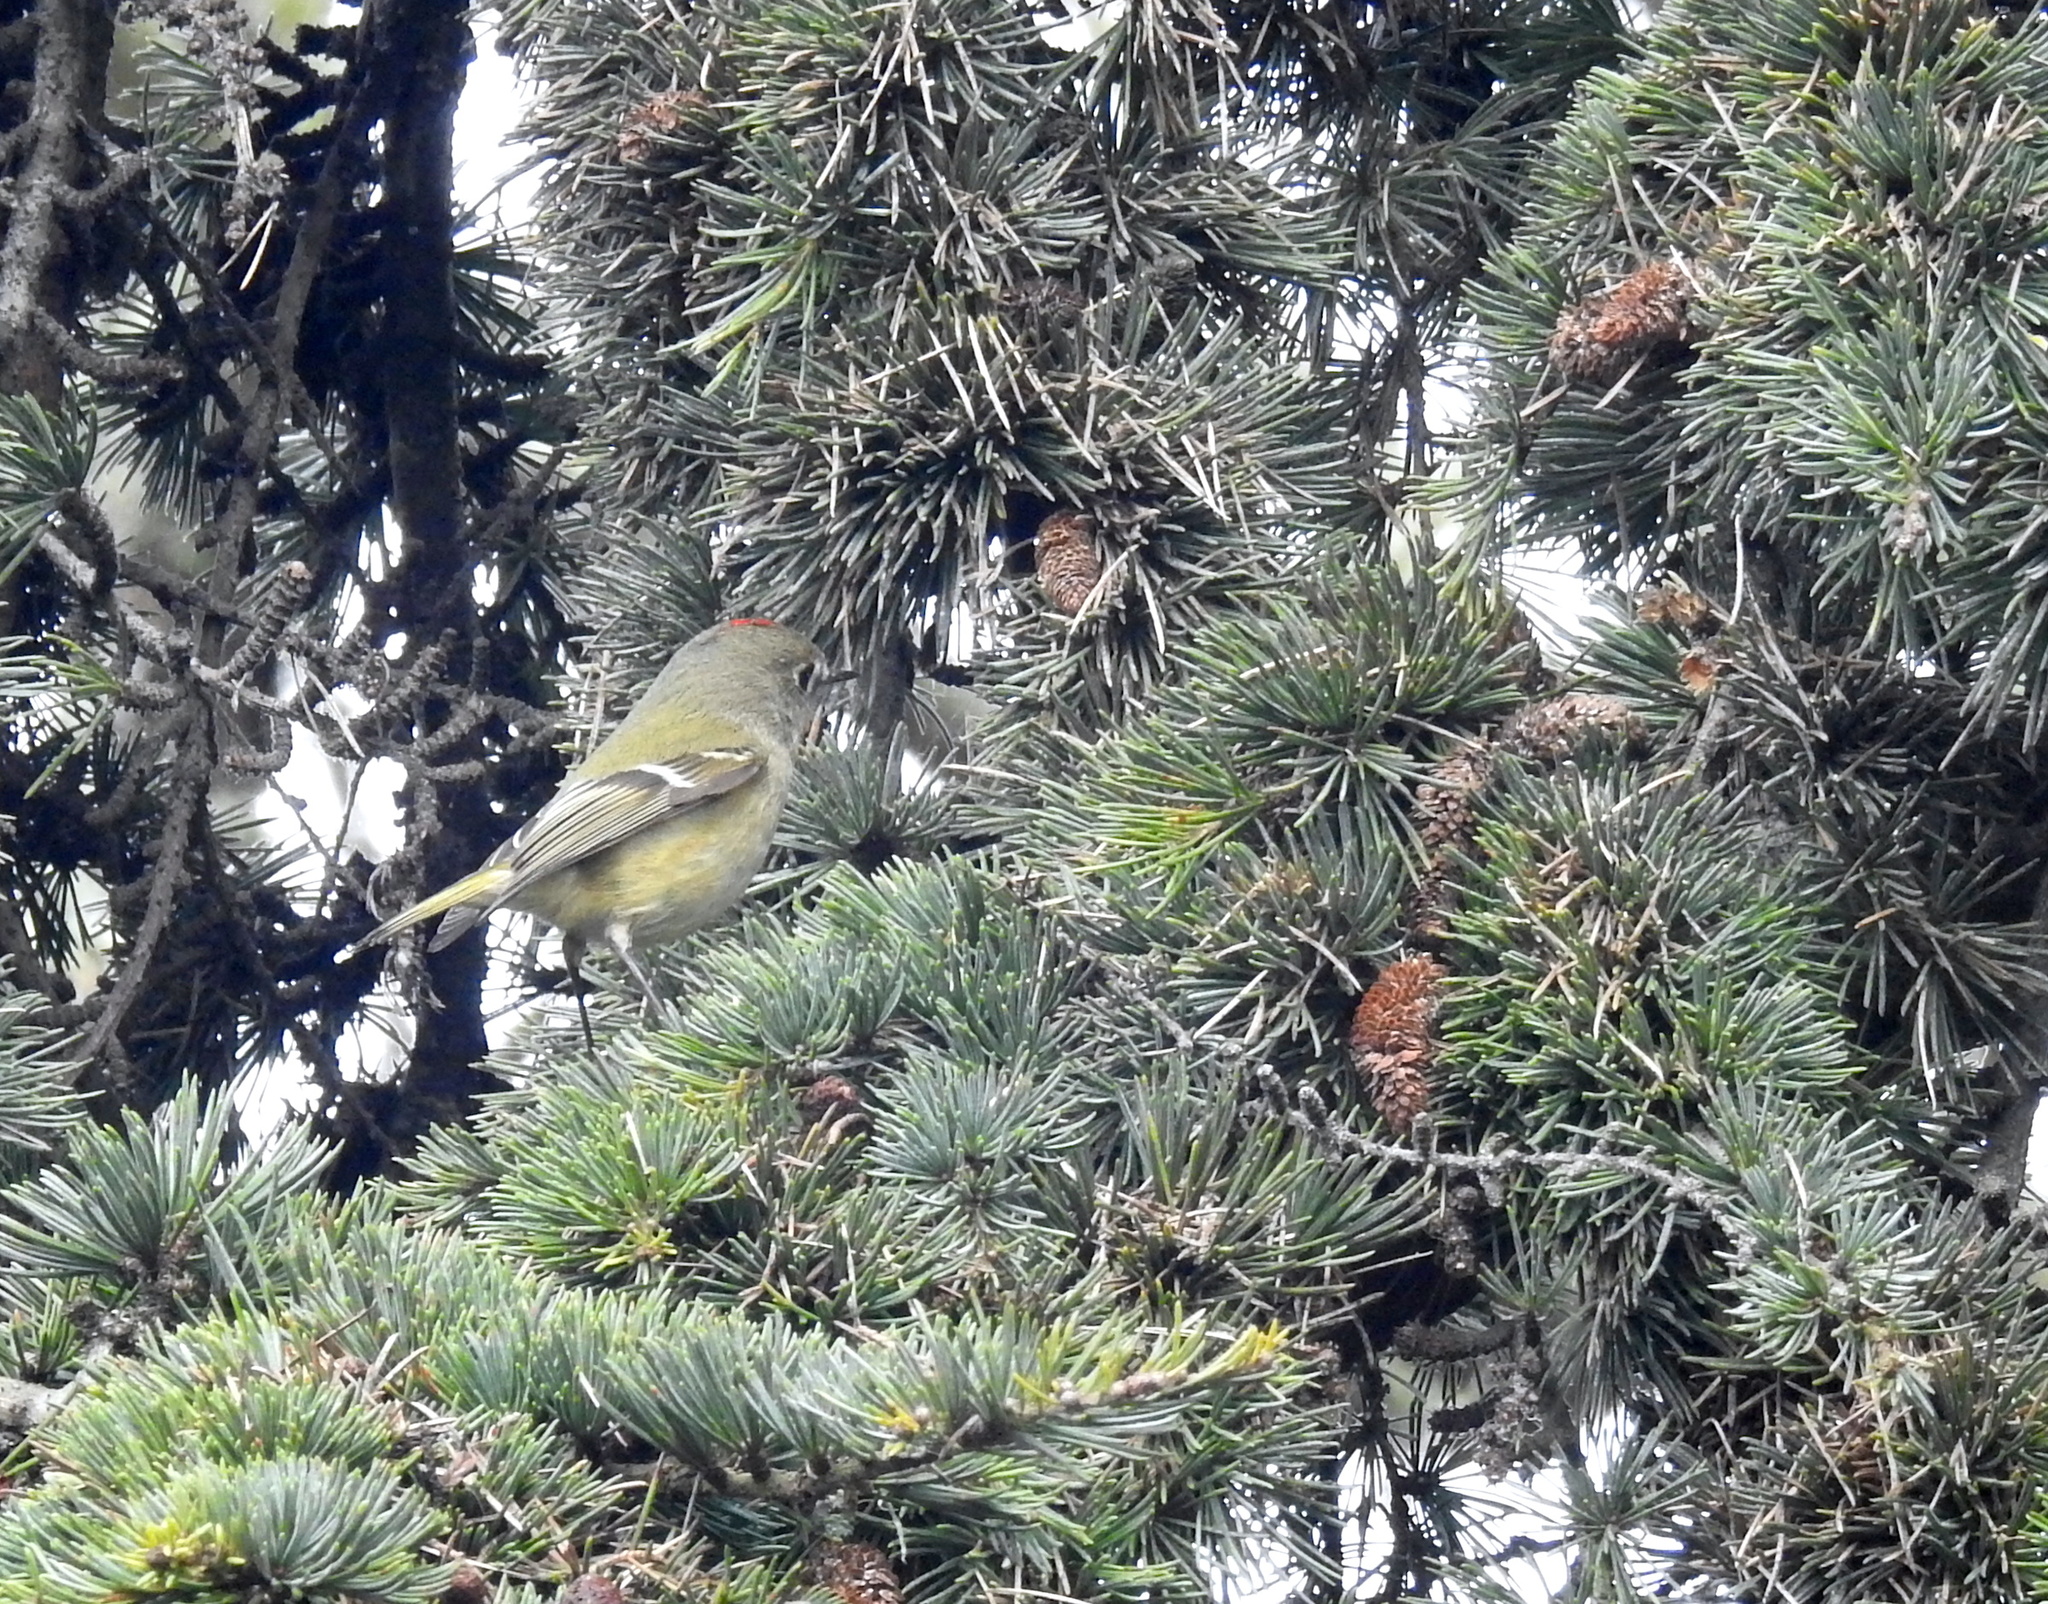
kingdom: Animalia
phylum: Chordata
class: Aves
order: Passeriformes
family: Regulidae
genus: Regulus
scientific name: Regulus calendula
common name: Ruby-crowned kinglet
